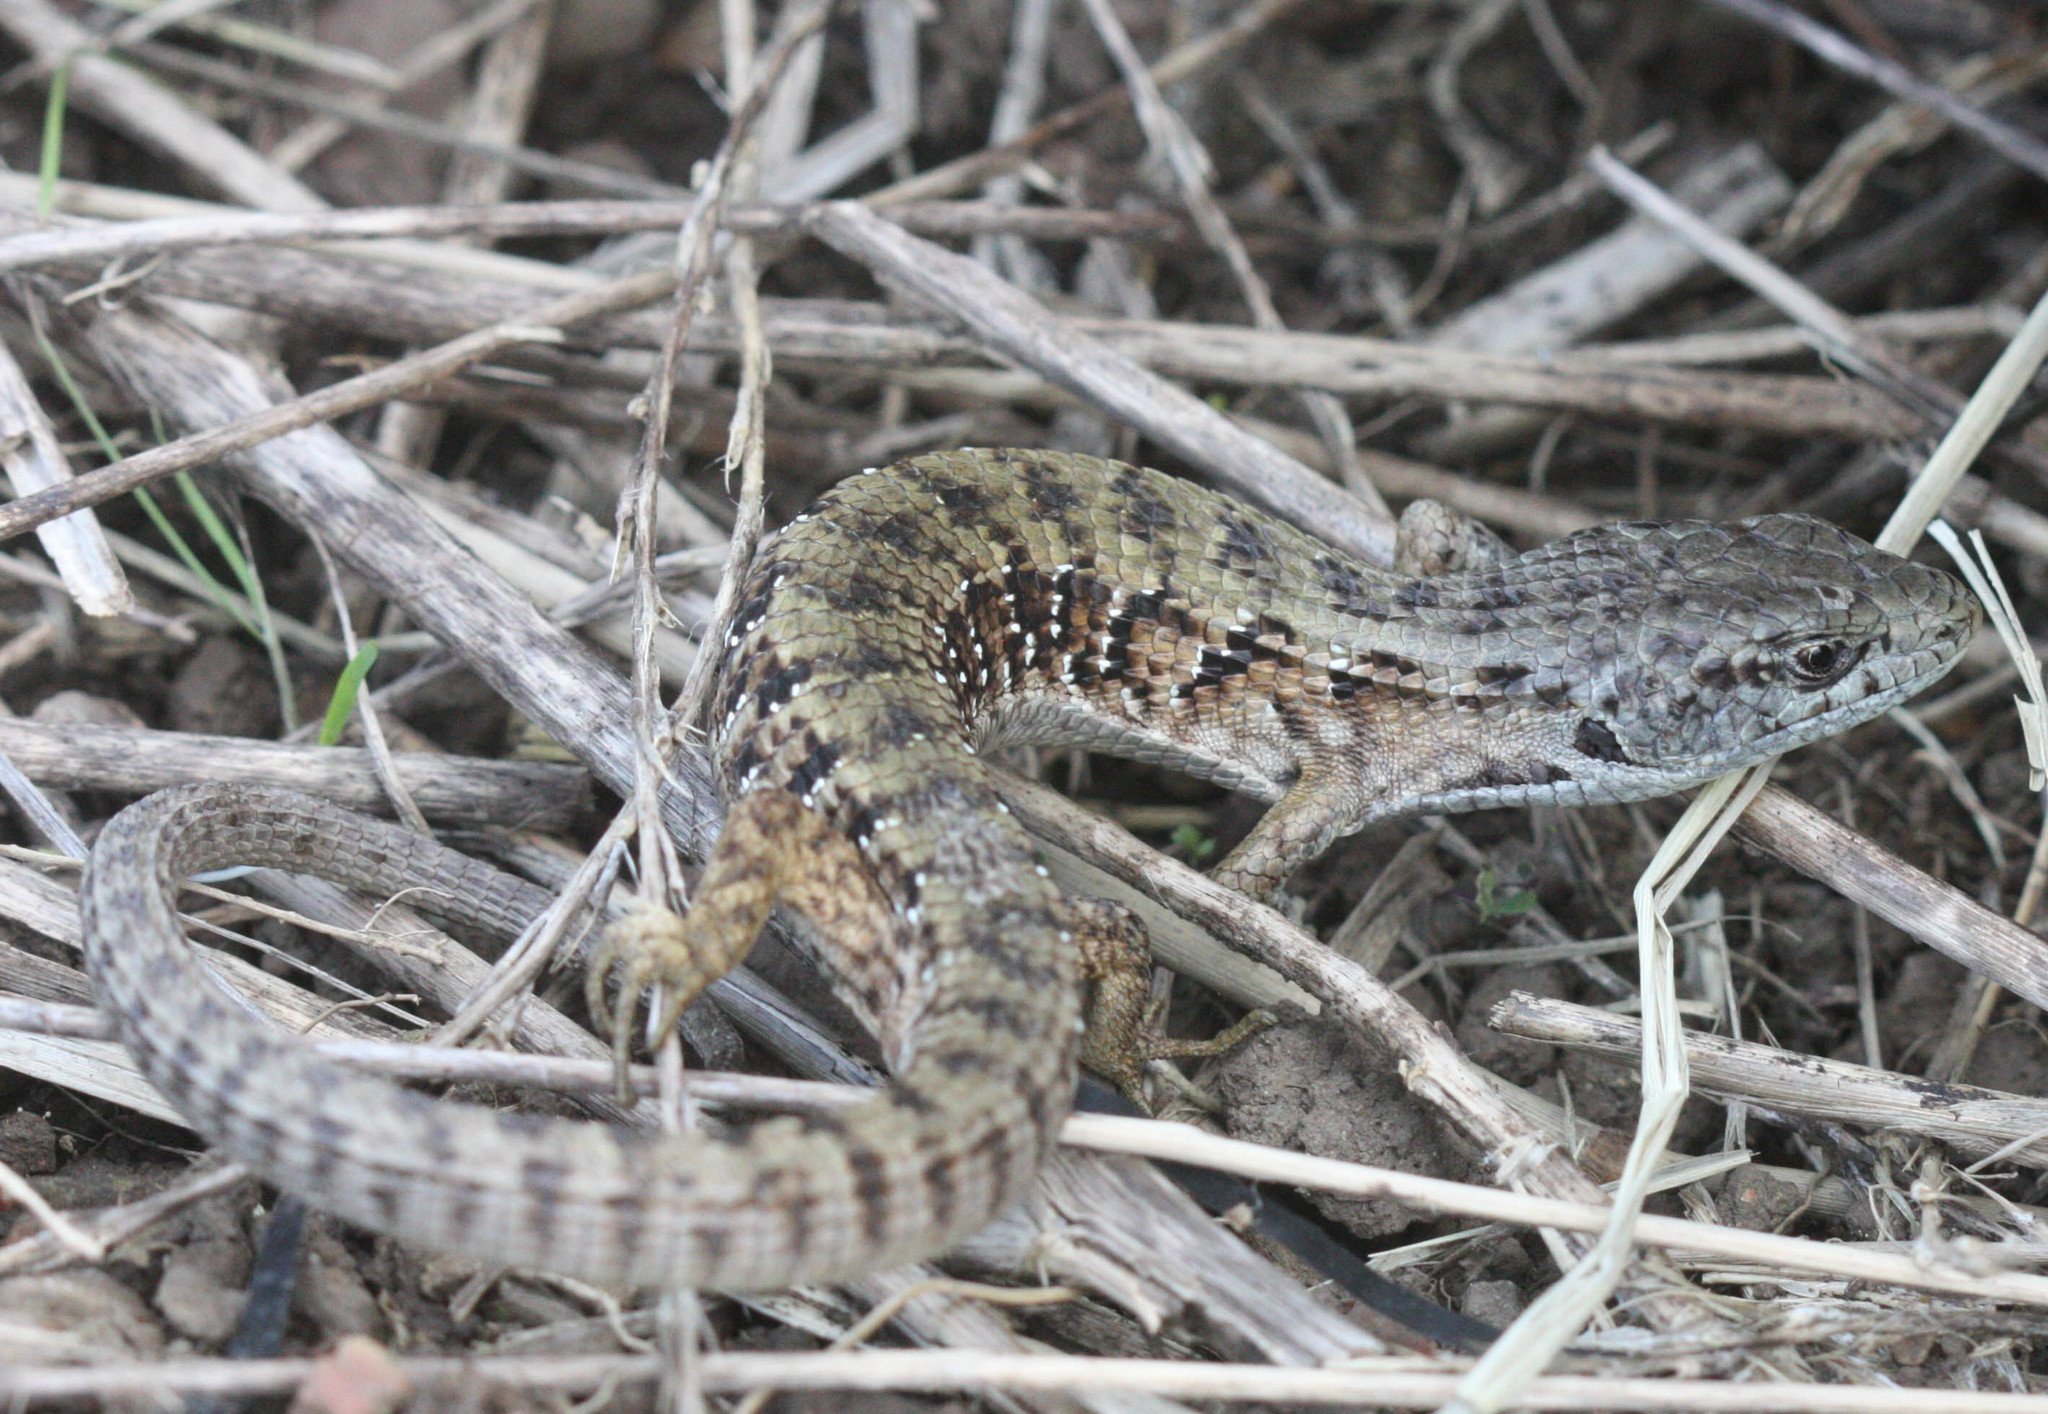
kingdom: Animalia
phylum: Chordata
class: Squamata
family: Anguidae
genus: Elgaria
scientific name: Elgaria coerulea
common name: Northern alligator lizard
